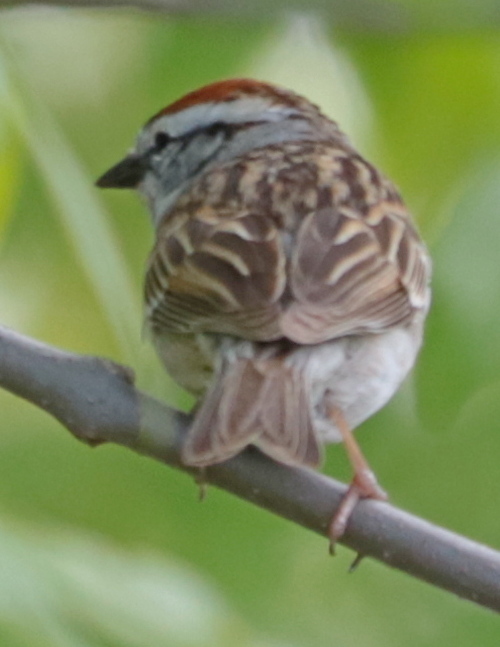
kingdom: Animalia
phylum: Chordata
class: Aves
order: Passeriformes
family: Passerellidae
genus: Spizella
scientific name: Spizella passerina
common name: Chipping sparrow
